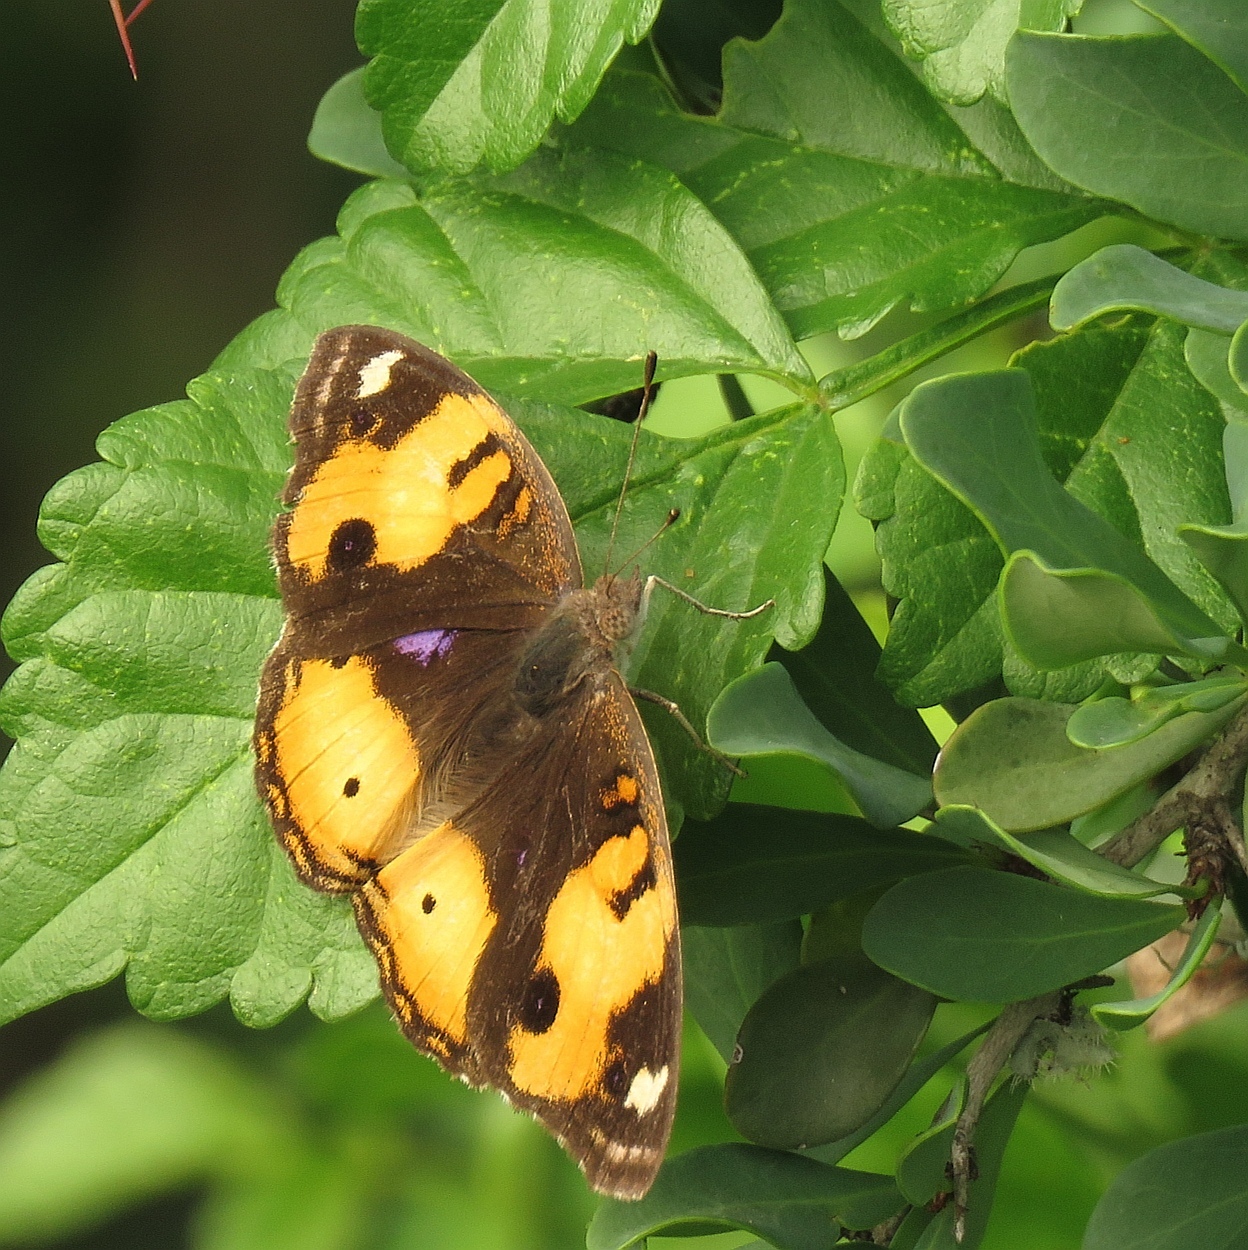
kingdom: Animalia
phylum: Arthropoda
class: Insecta
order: Lepidoptera
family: Nymphalidae
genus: Junonia
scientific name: Junonia hierta
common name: Yellow pansy
